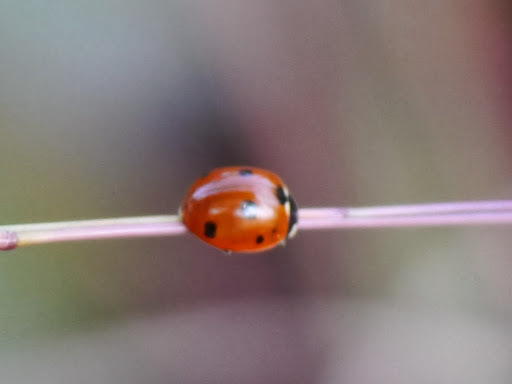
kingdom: Animalia
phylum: Arthropoda
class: Insecta
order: Coleoptera
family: Coccinellidae
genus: Coccinella
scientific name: Coccinella septempunctata
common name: Sevenspotted lady beetle
